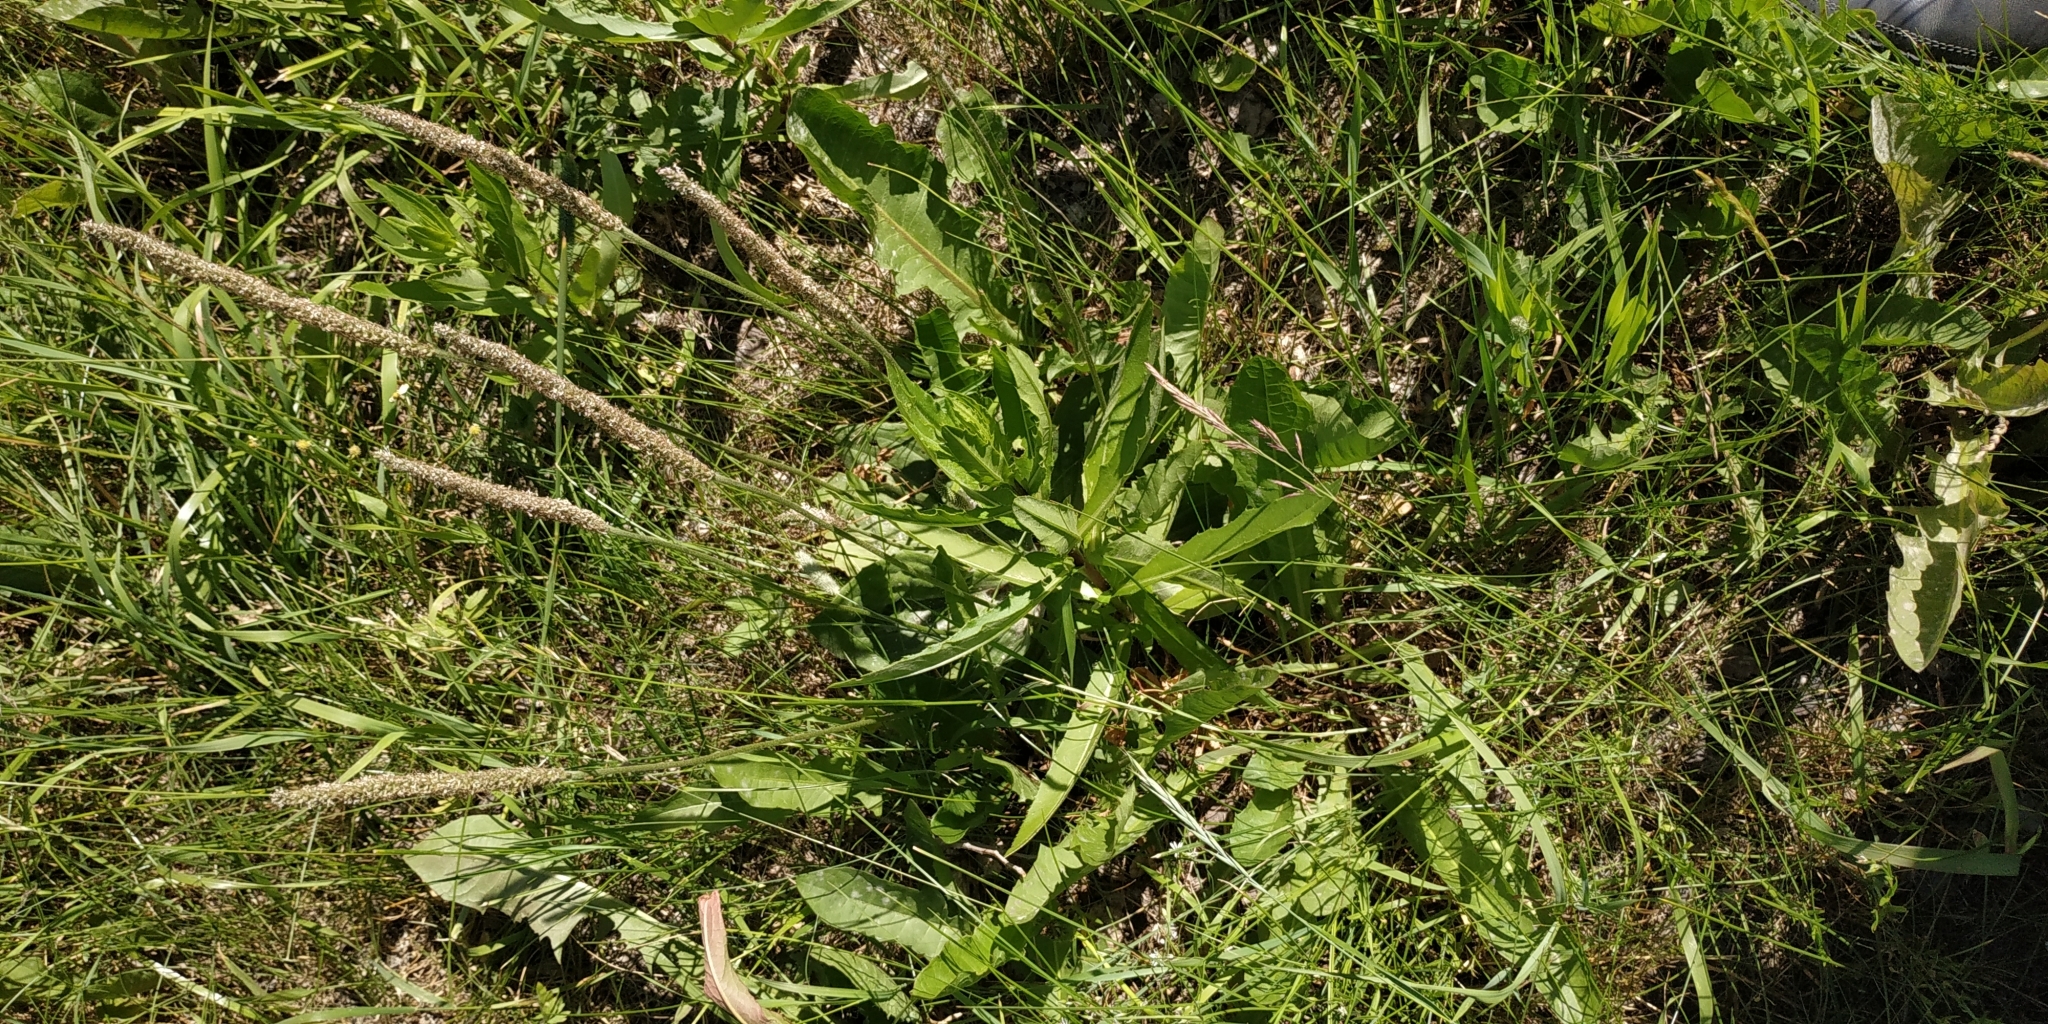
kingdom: Plantae
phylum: Tracheophyta
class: Magnoliopsida
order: Lamiales
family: Plantaginaceae
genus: Plantago
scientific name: Plantago media
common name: Hoary plantain
